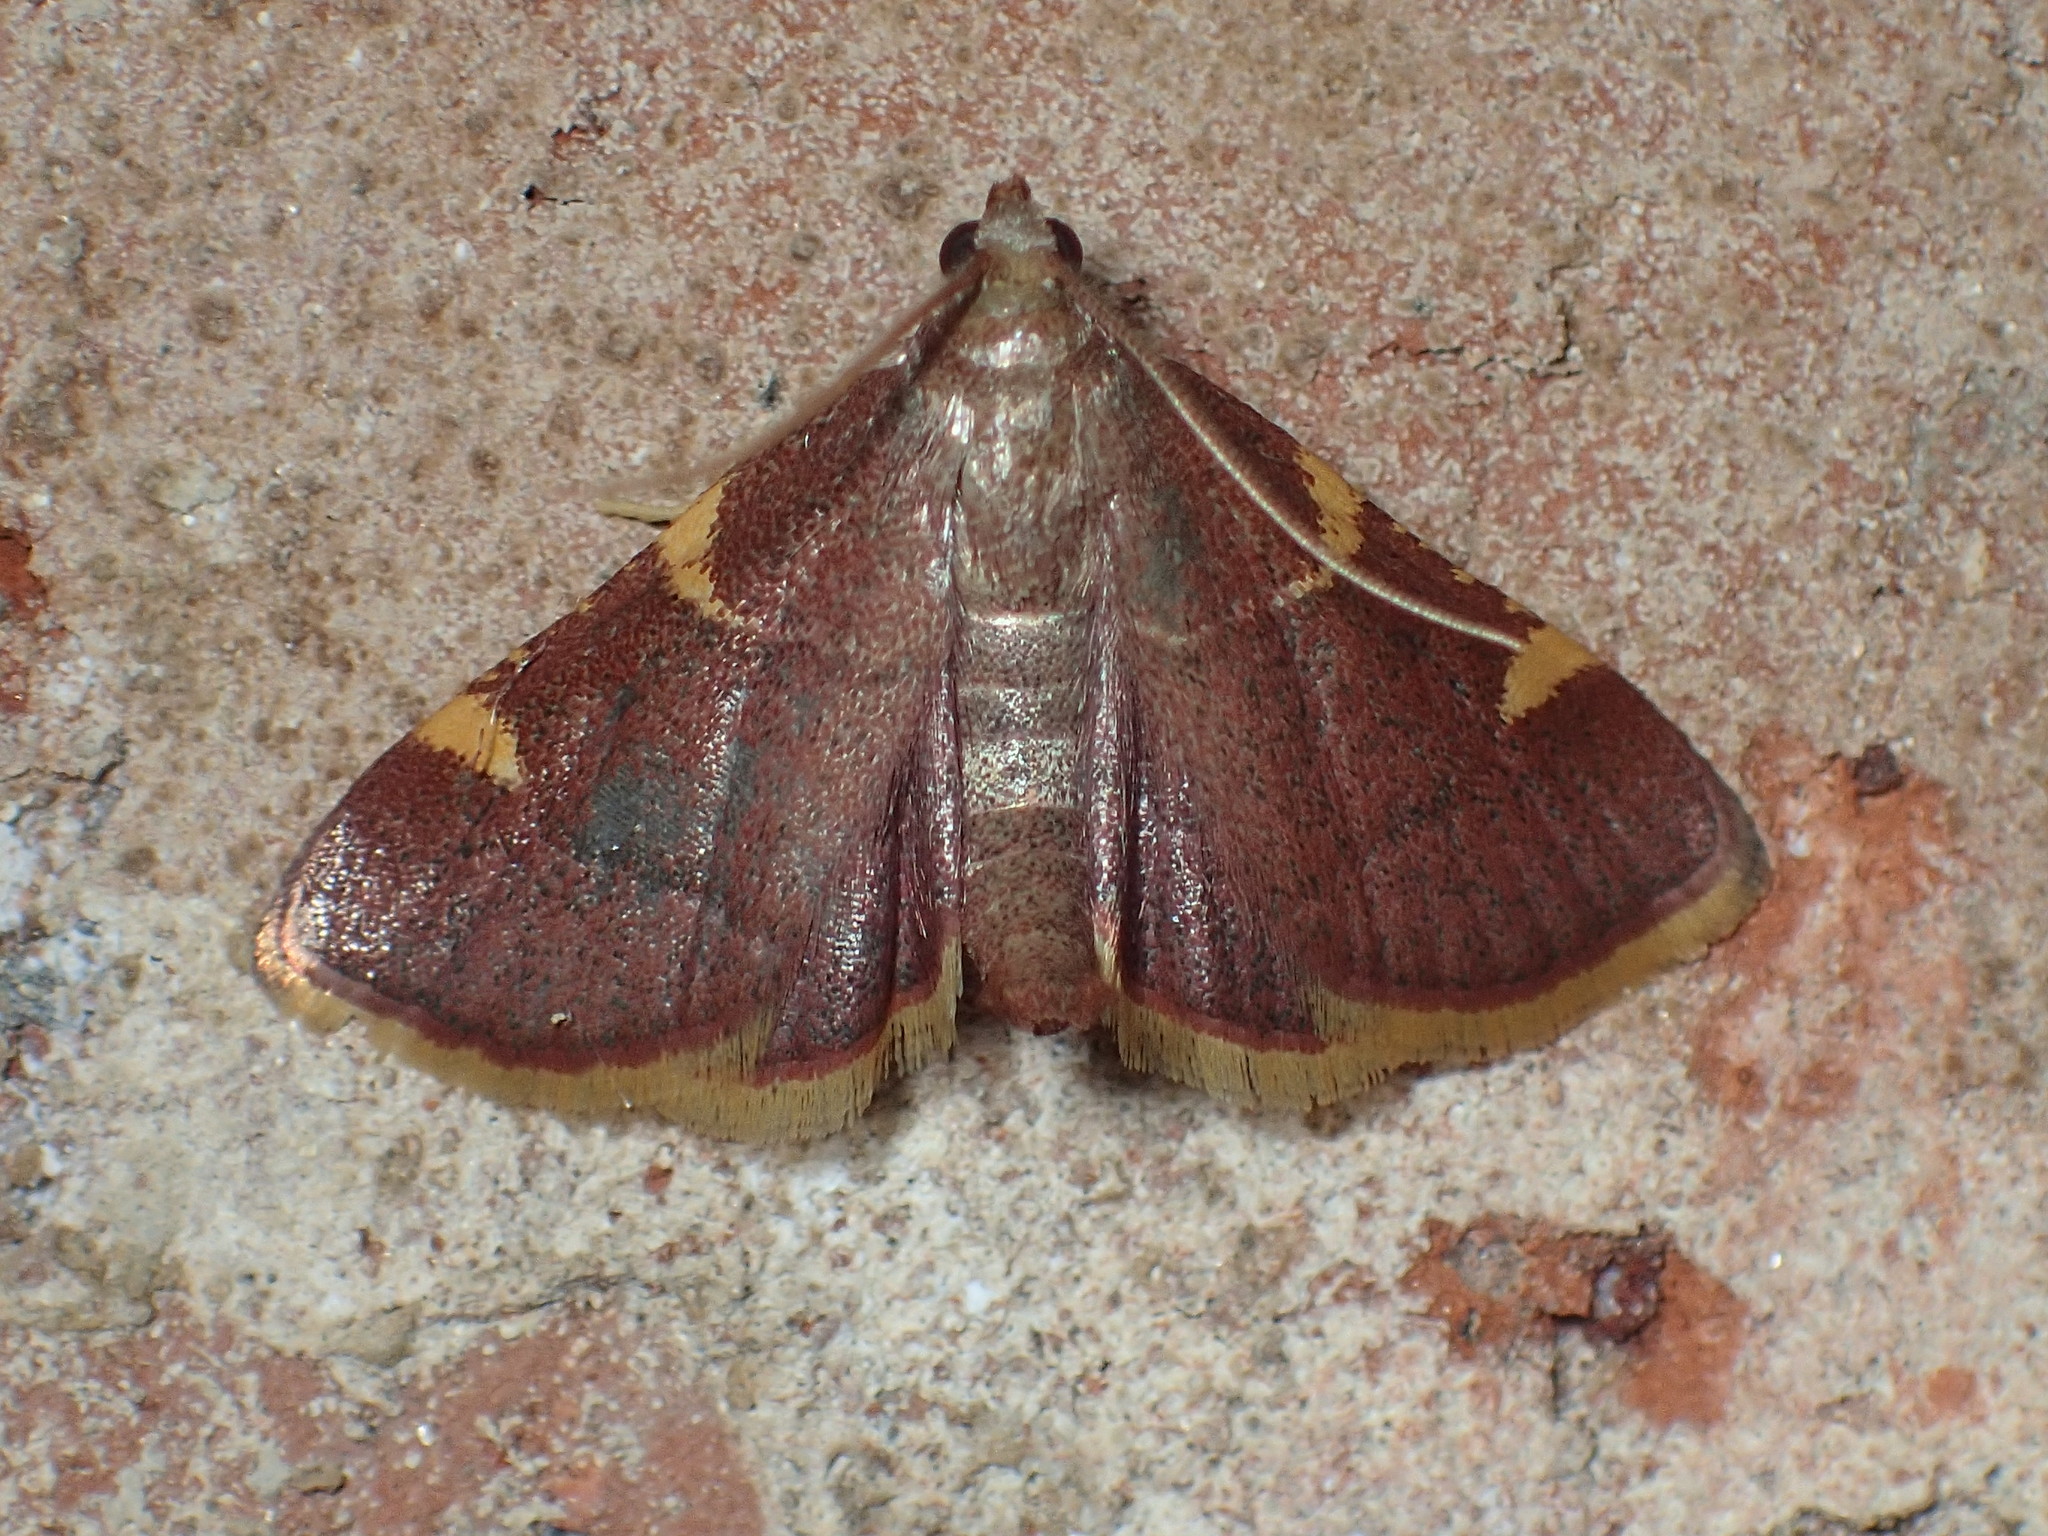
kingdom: Animalia
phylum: Arthropoda
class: Insecta
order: Lepidoptera
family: Pyralidae
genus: Hypsopygia
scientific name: Hypsopygia olinalis
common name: Yellow-fringed dolichomia moth
